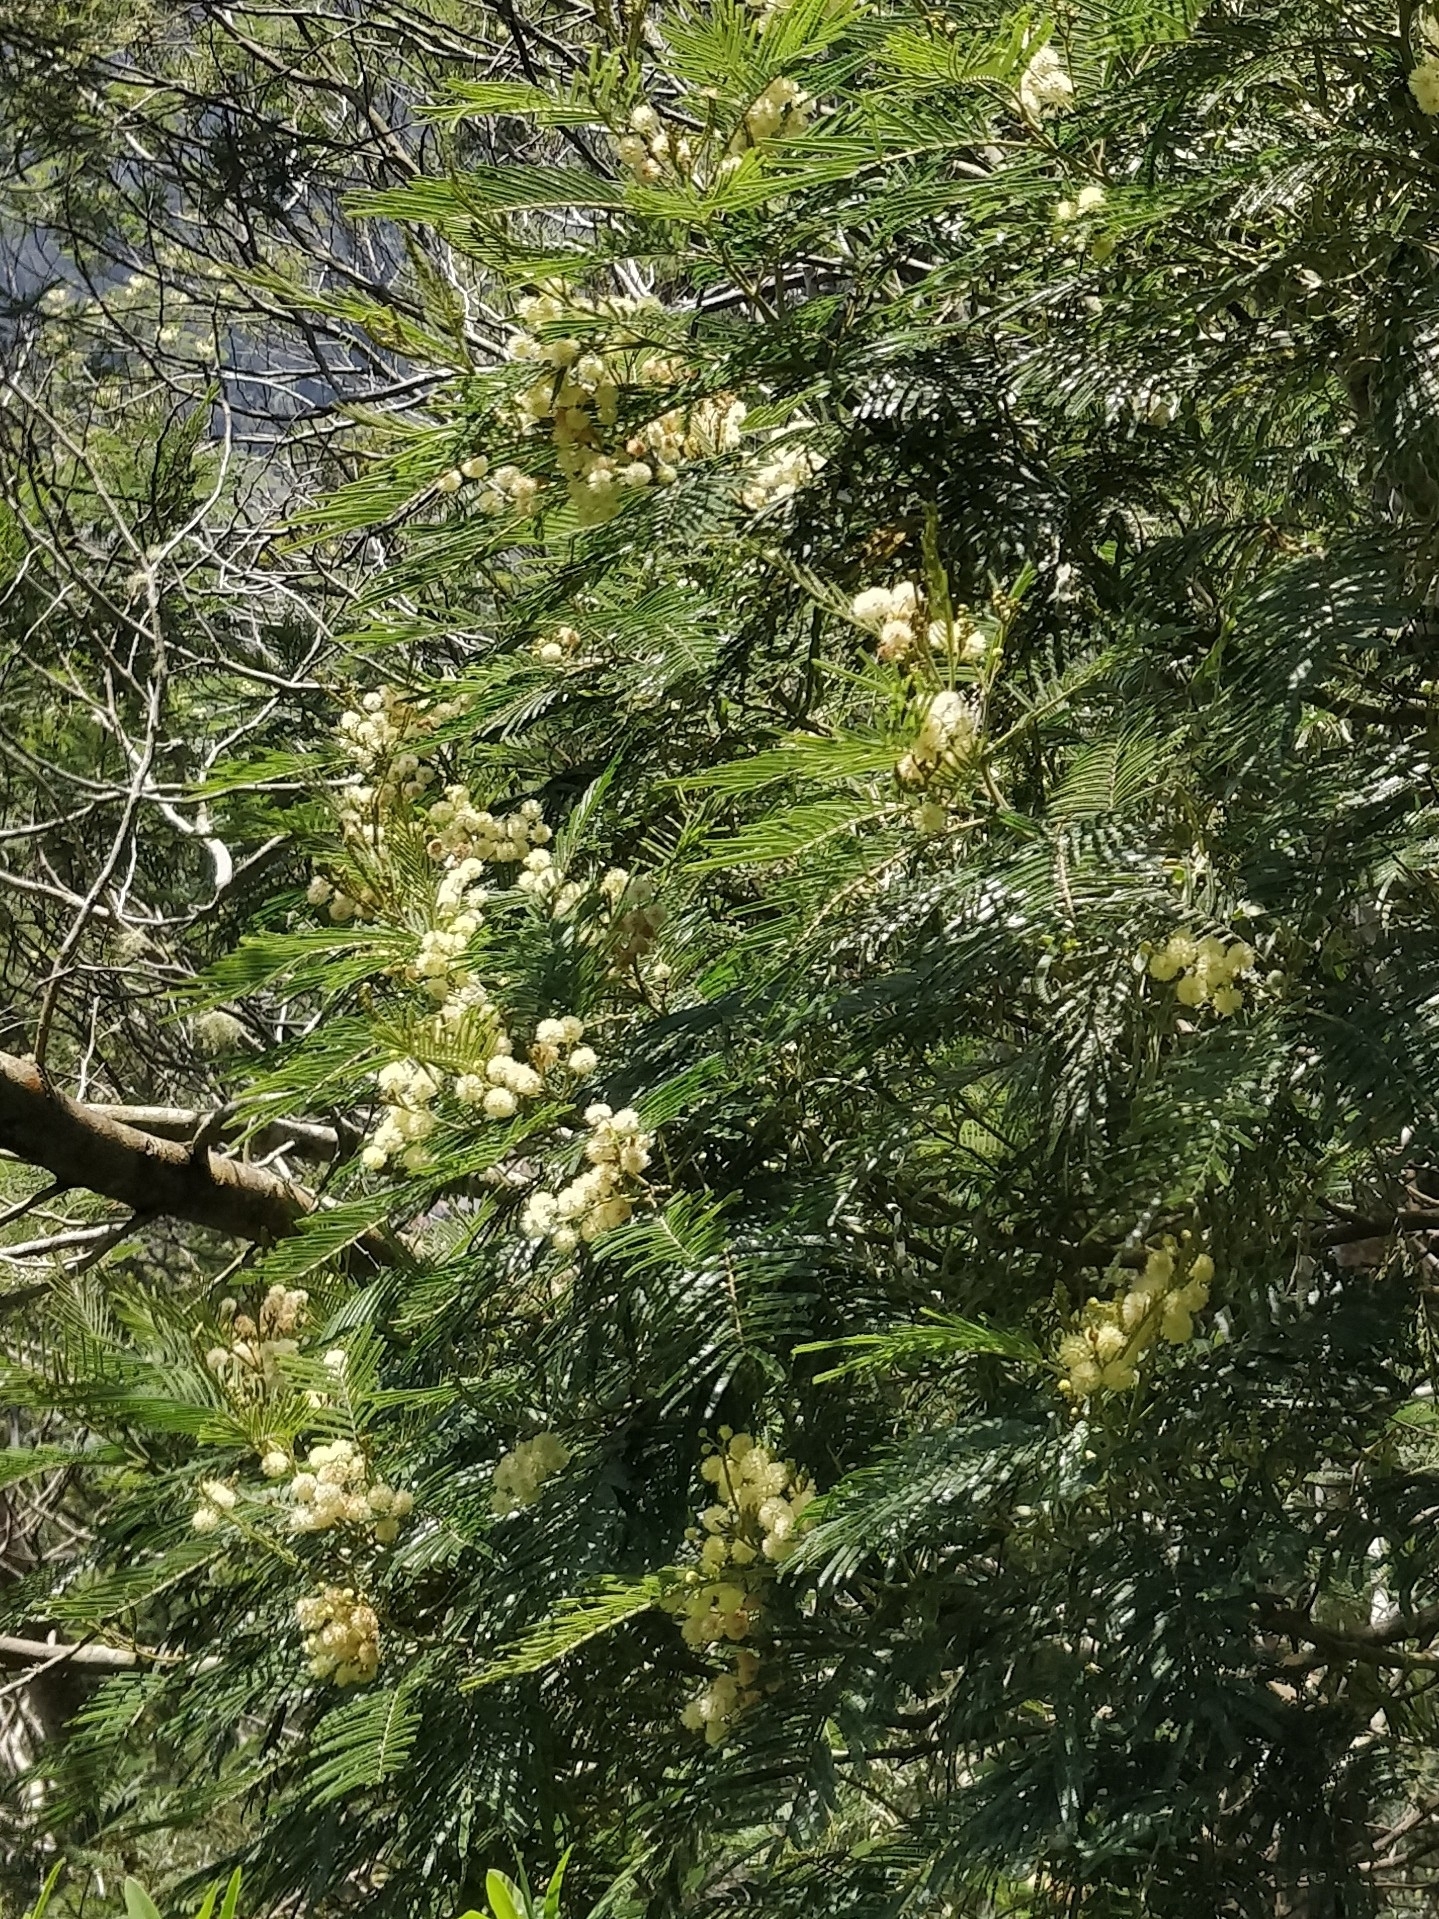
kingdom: Plantae
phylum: Tracheophyta
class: Magnoliopsida
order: Fabales
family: Fabaceae
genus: Acacia
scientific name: Acacia mearnsii
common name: Black wattle
